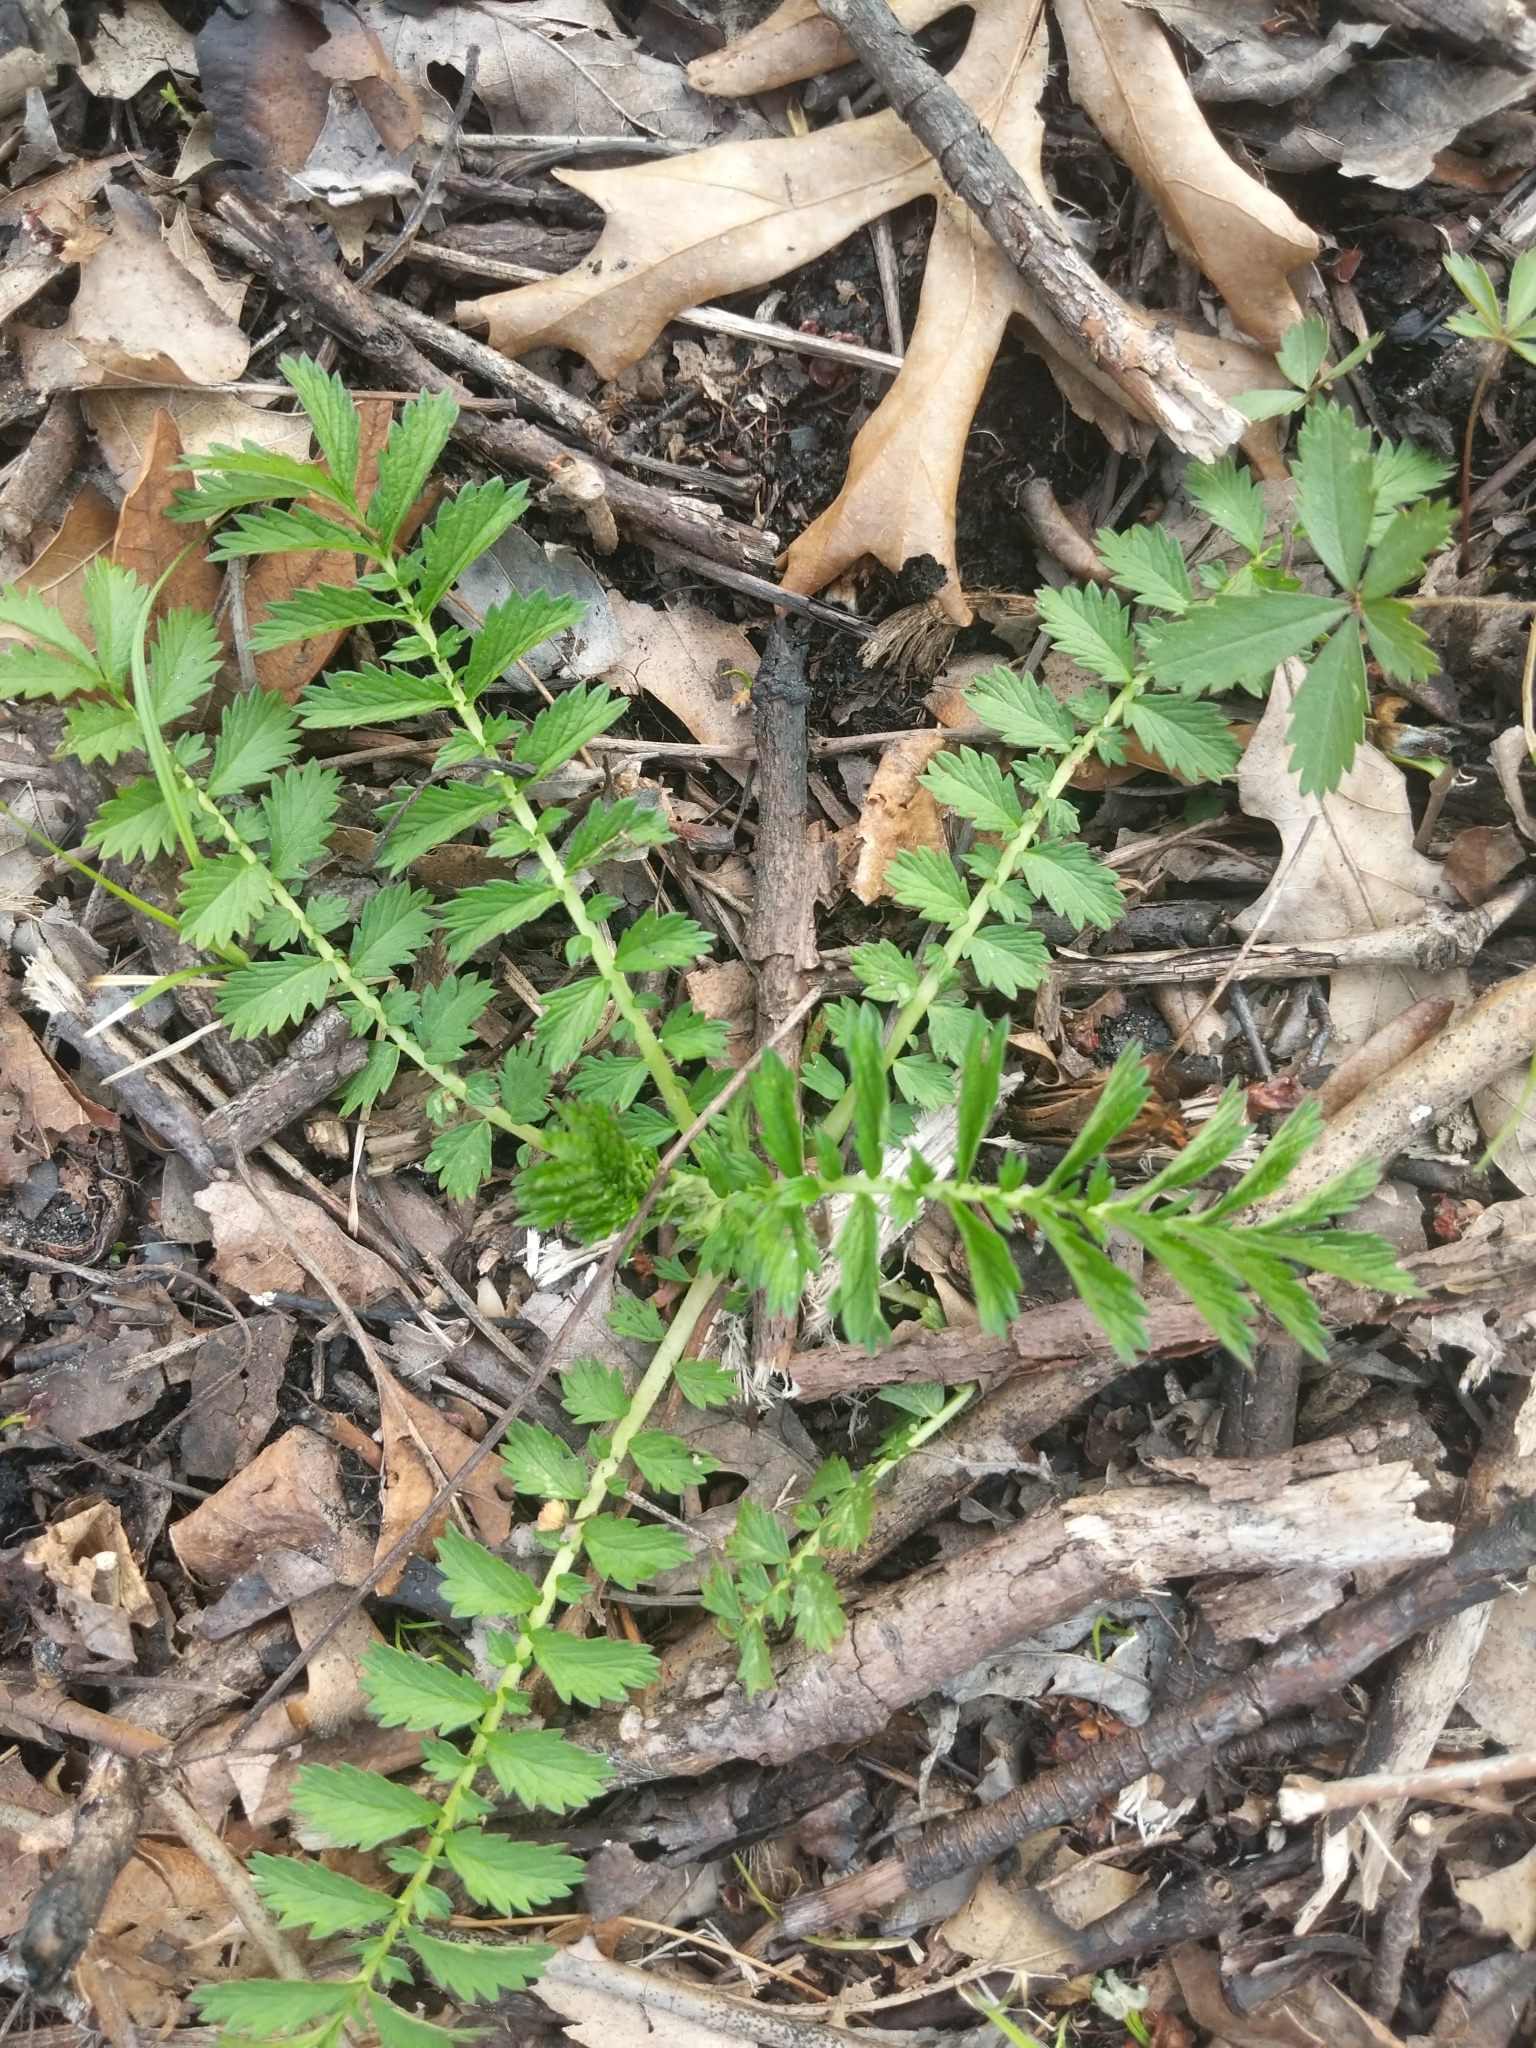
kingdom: Plantae
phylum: Tracheophyta
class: Magnoliopsida
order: Rosales
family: Rosaceae
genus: Agrimonia
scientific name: Agrimonia parviflora
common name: Harvest-lice
